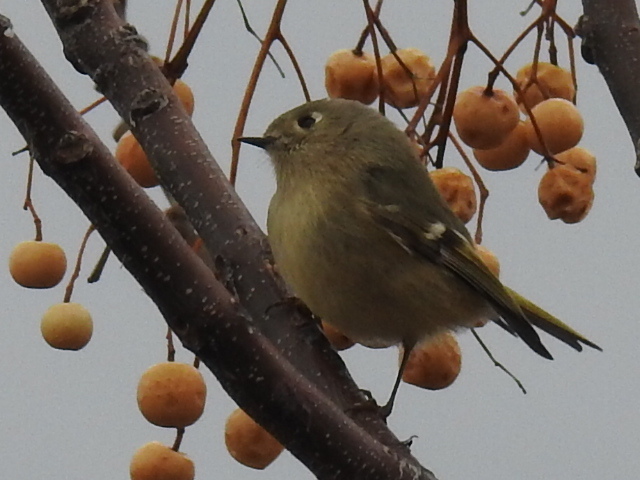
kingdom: Animalia
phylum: Chordata
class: Aves
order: Passeriformes
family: Regulidae
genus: Regulus
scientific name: Regulus calendula
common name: Ruby-crowned kinglet
